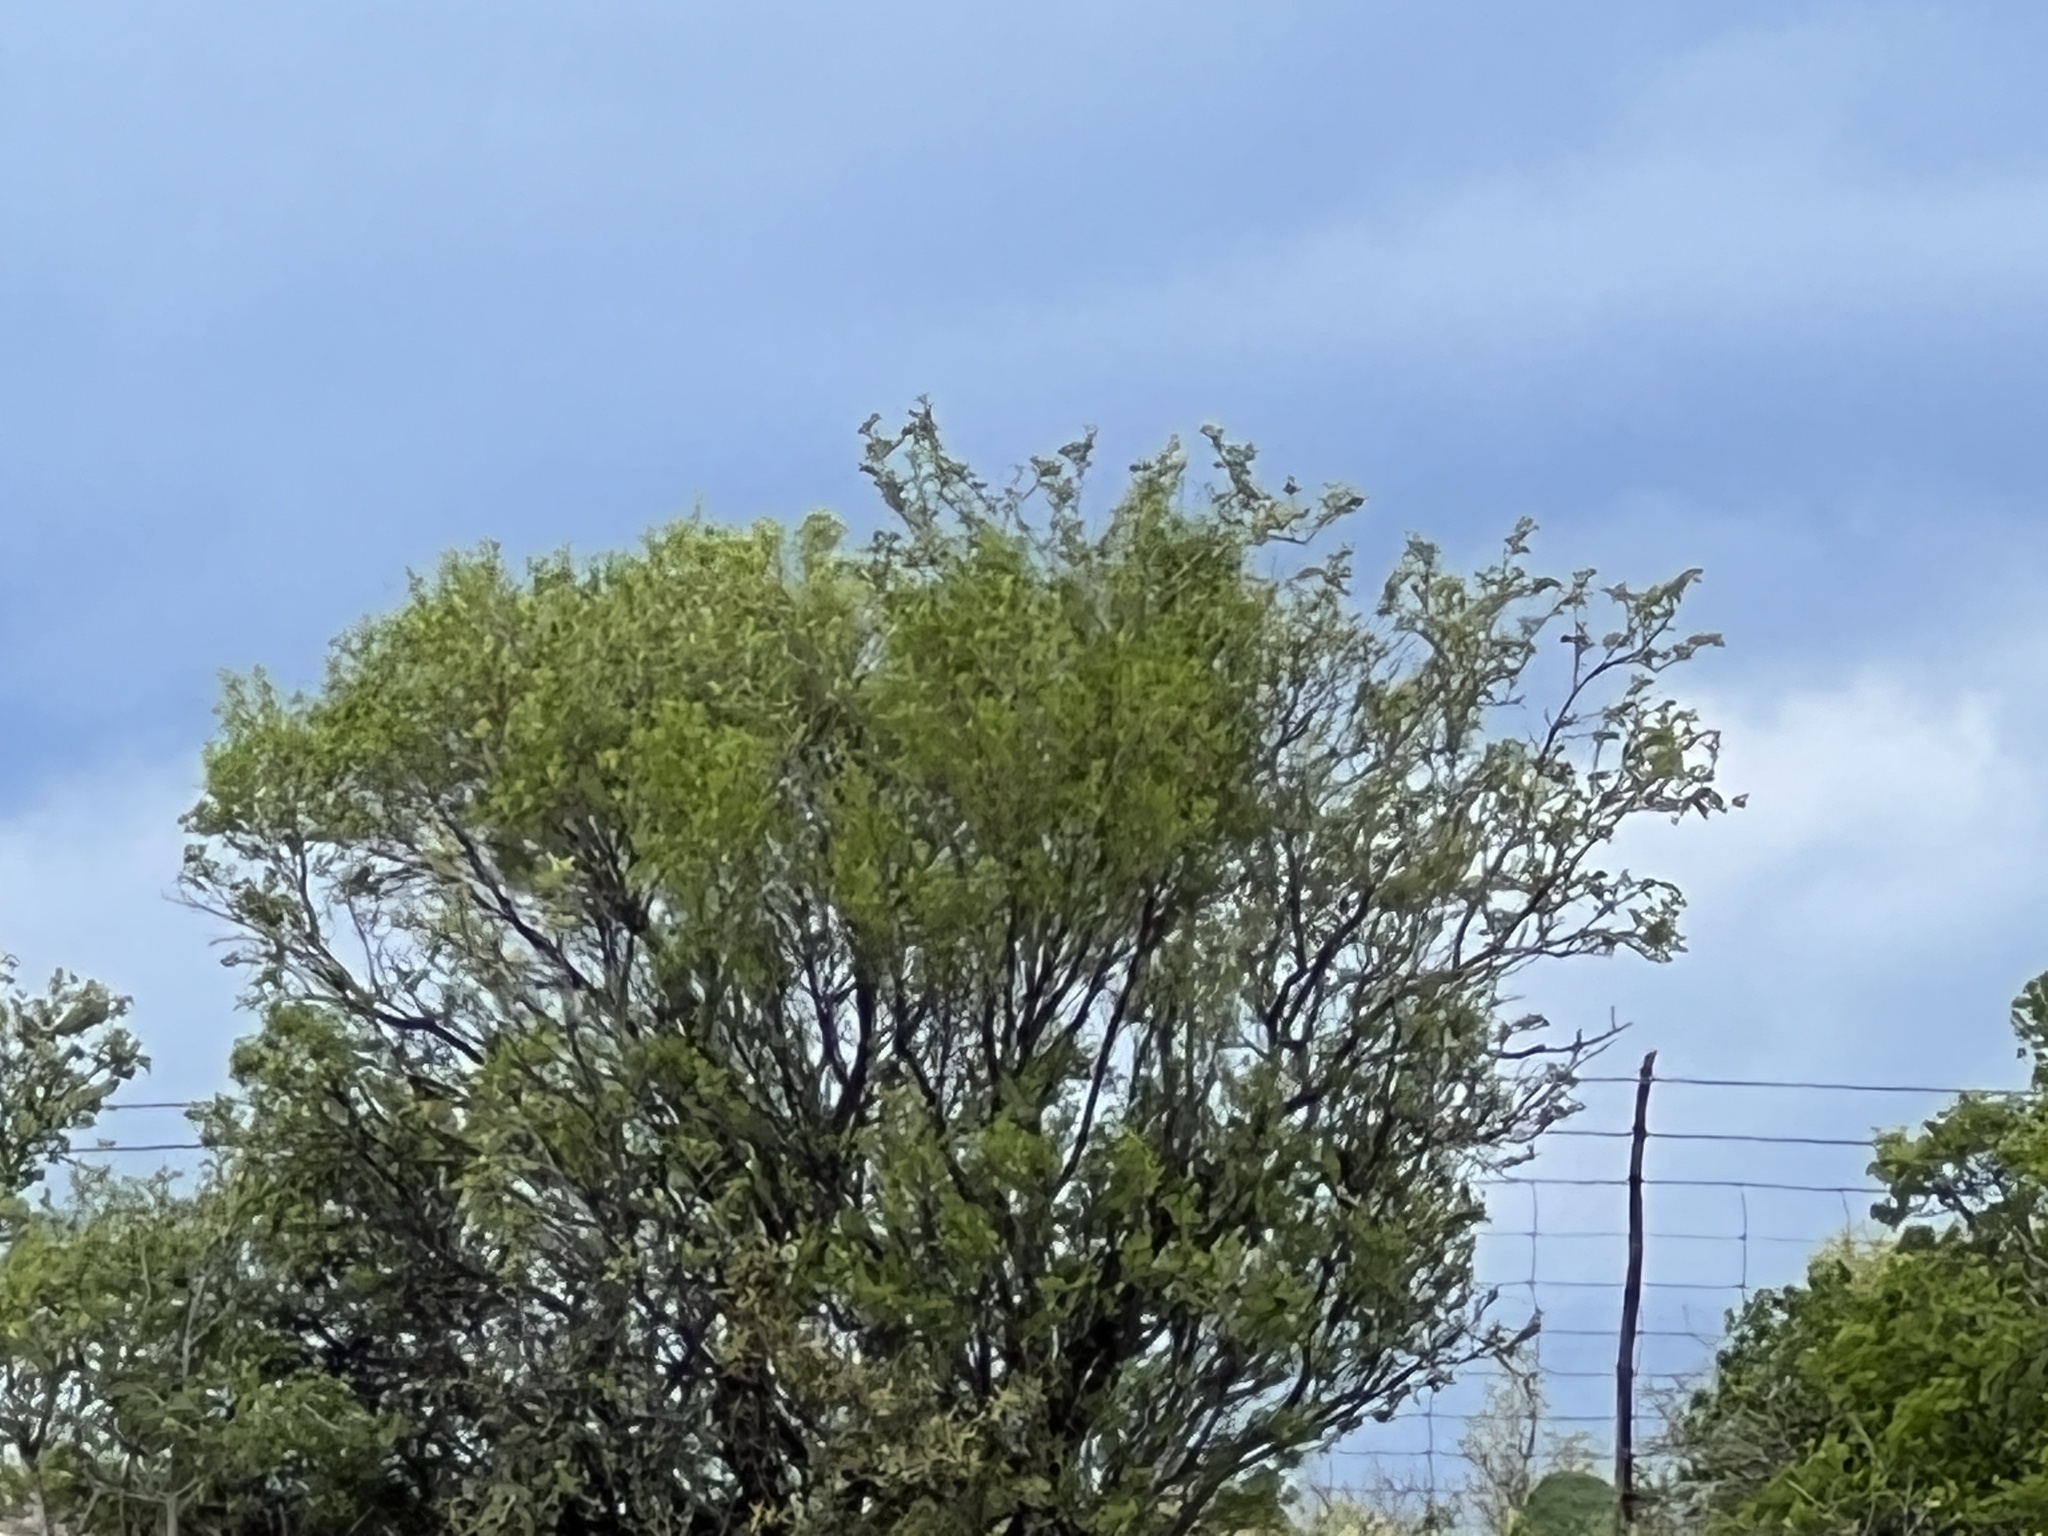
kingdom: Plantae
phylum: Tracheophyta
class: Magnoliopsida
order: Zygophyllales
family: Zygophyllaceae
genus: Larrea
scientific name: Larrea tridentata
